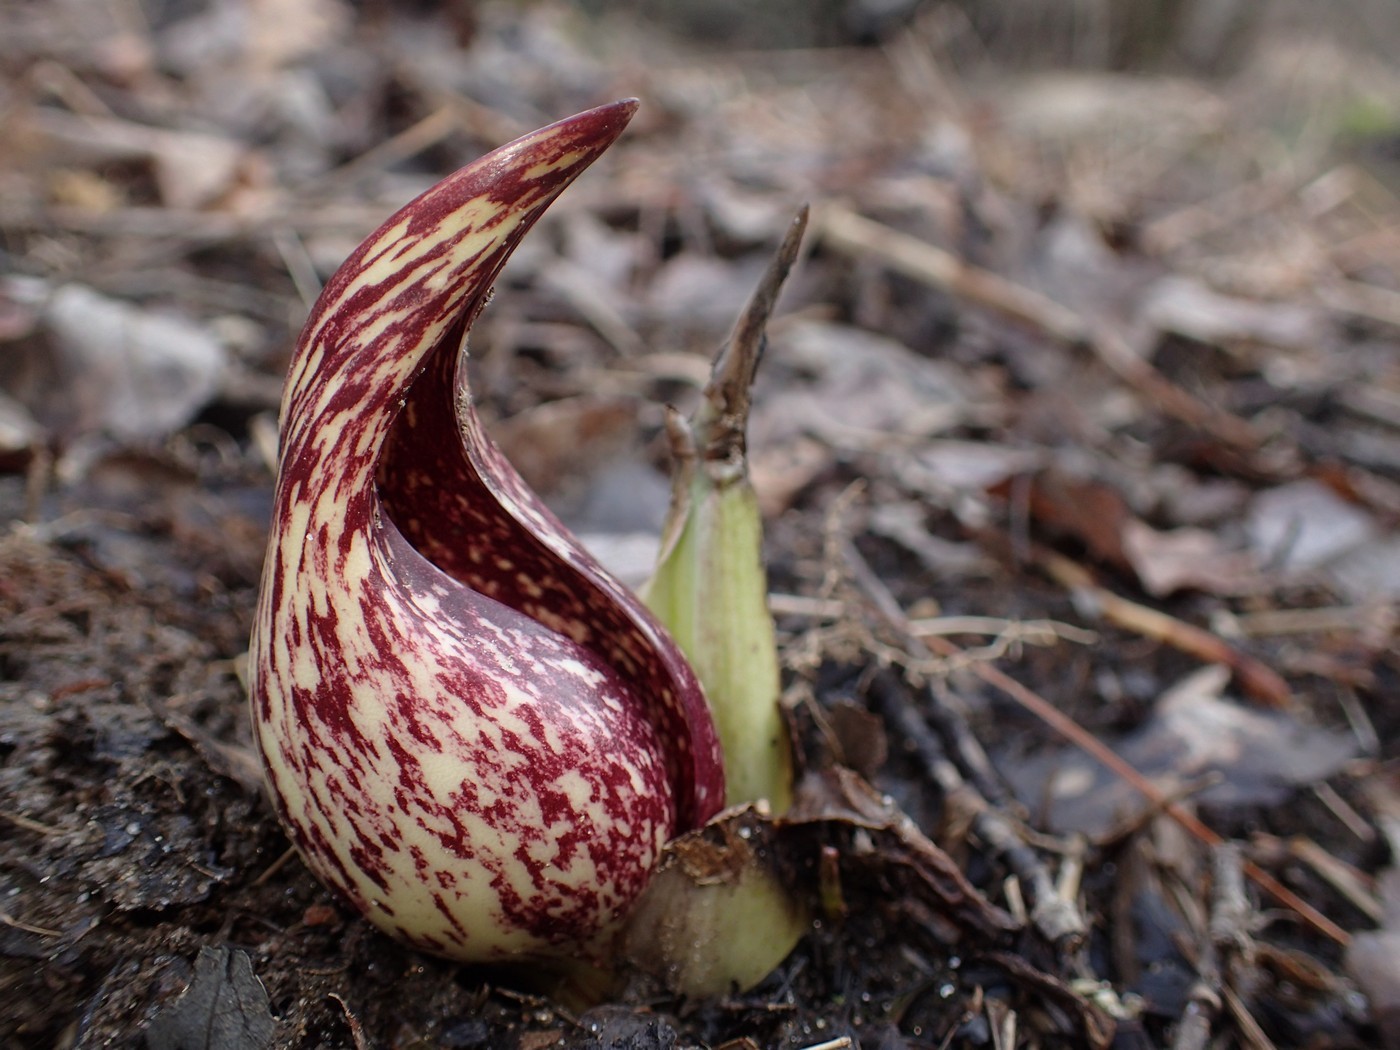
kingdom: Plantae
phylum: Tracheophyta
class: Liliopsida
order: Alismatales
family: Araceae
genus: Symplocarpus
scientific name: Symplocarpus foetidus
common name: Eastern skunk cabbage
